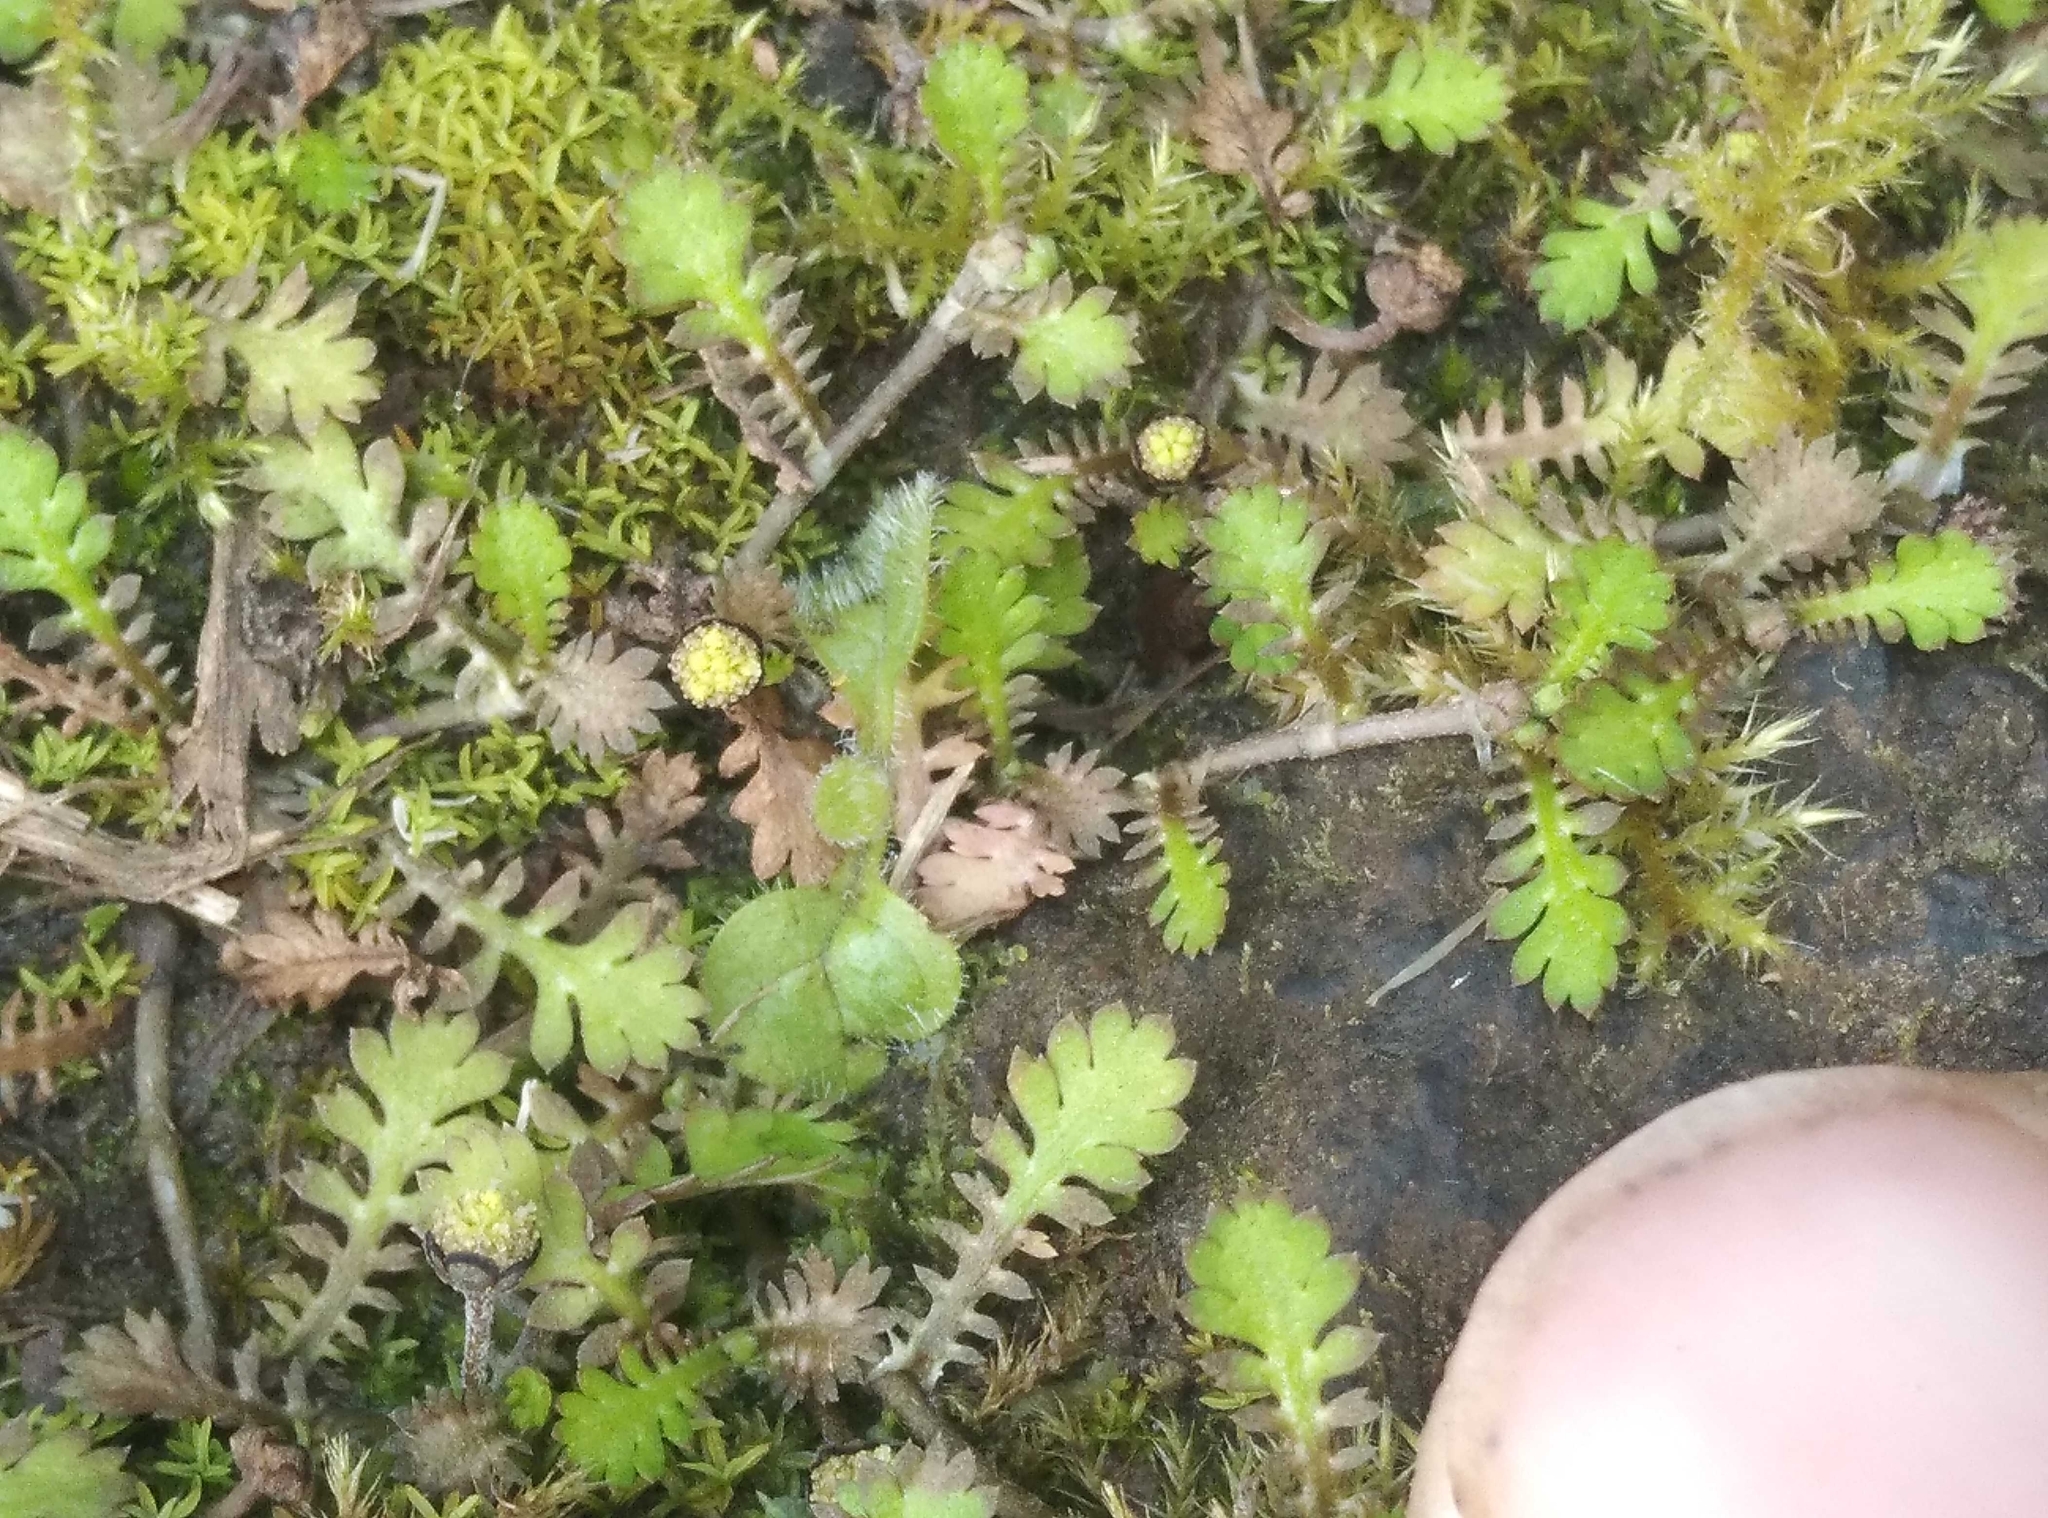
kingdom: Plantae
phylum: Tracheophyta
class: Magnoliopsida
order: Asterales
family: Asteraceae
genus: Leptinella
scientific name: Leptinella nana
